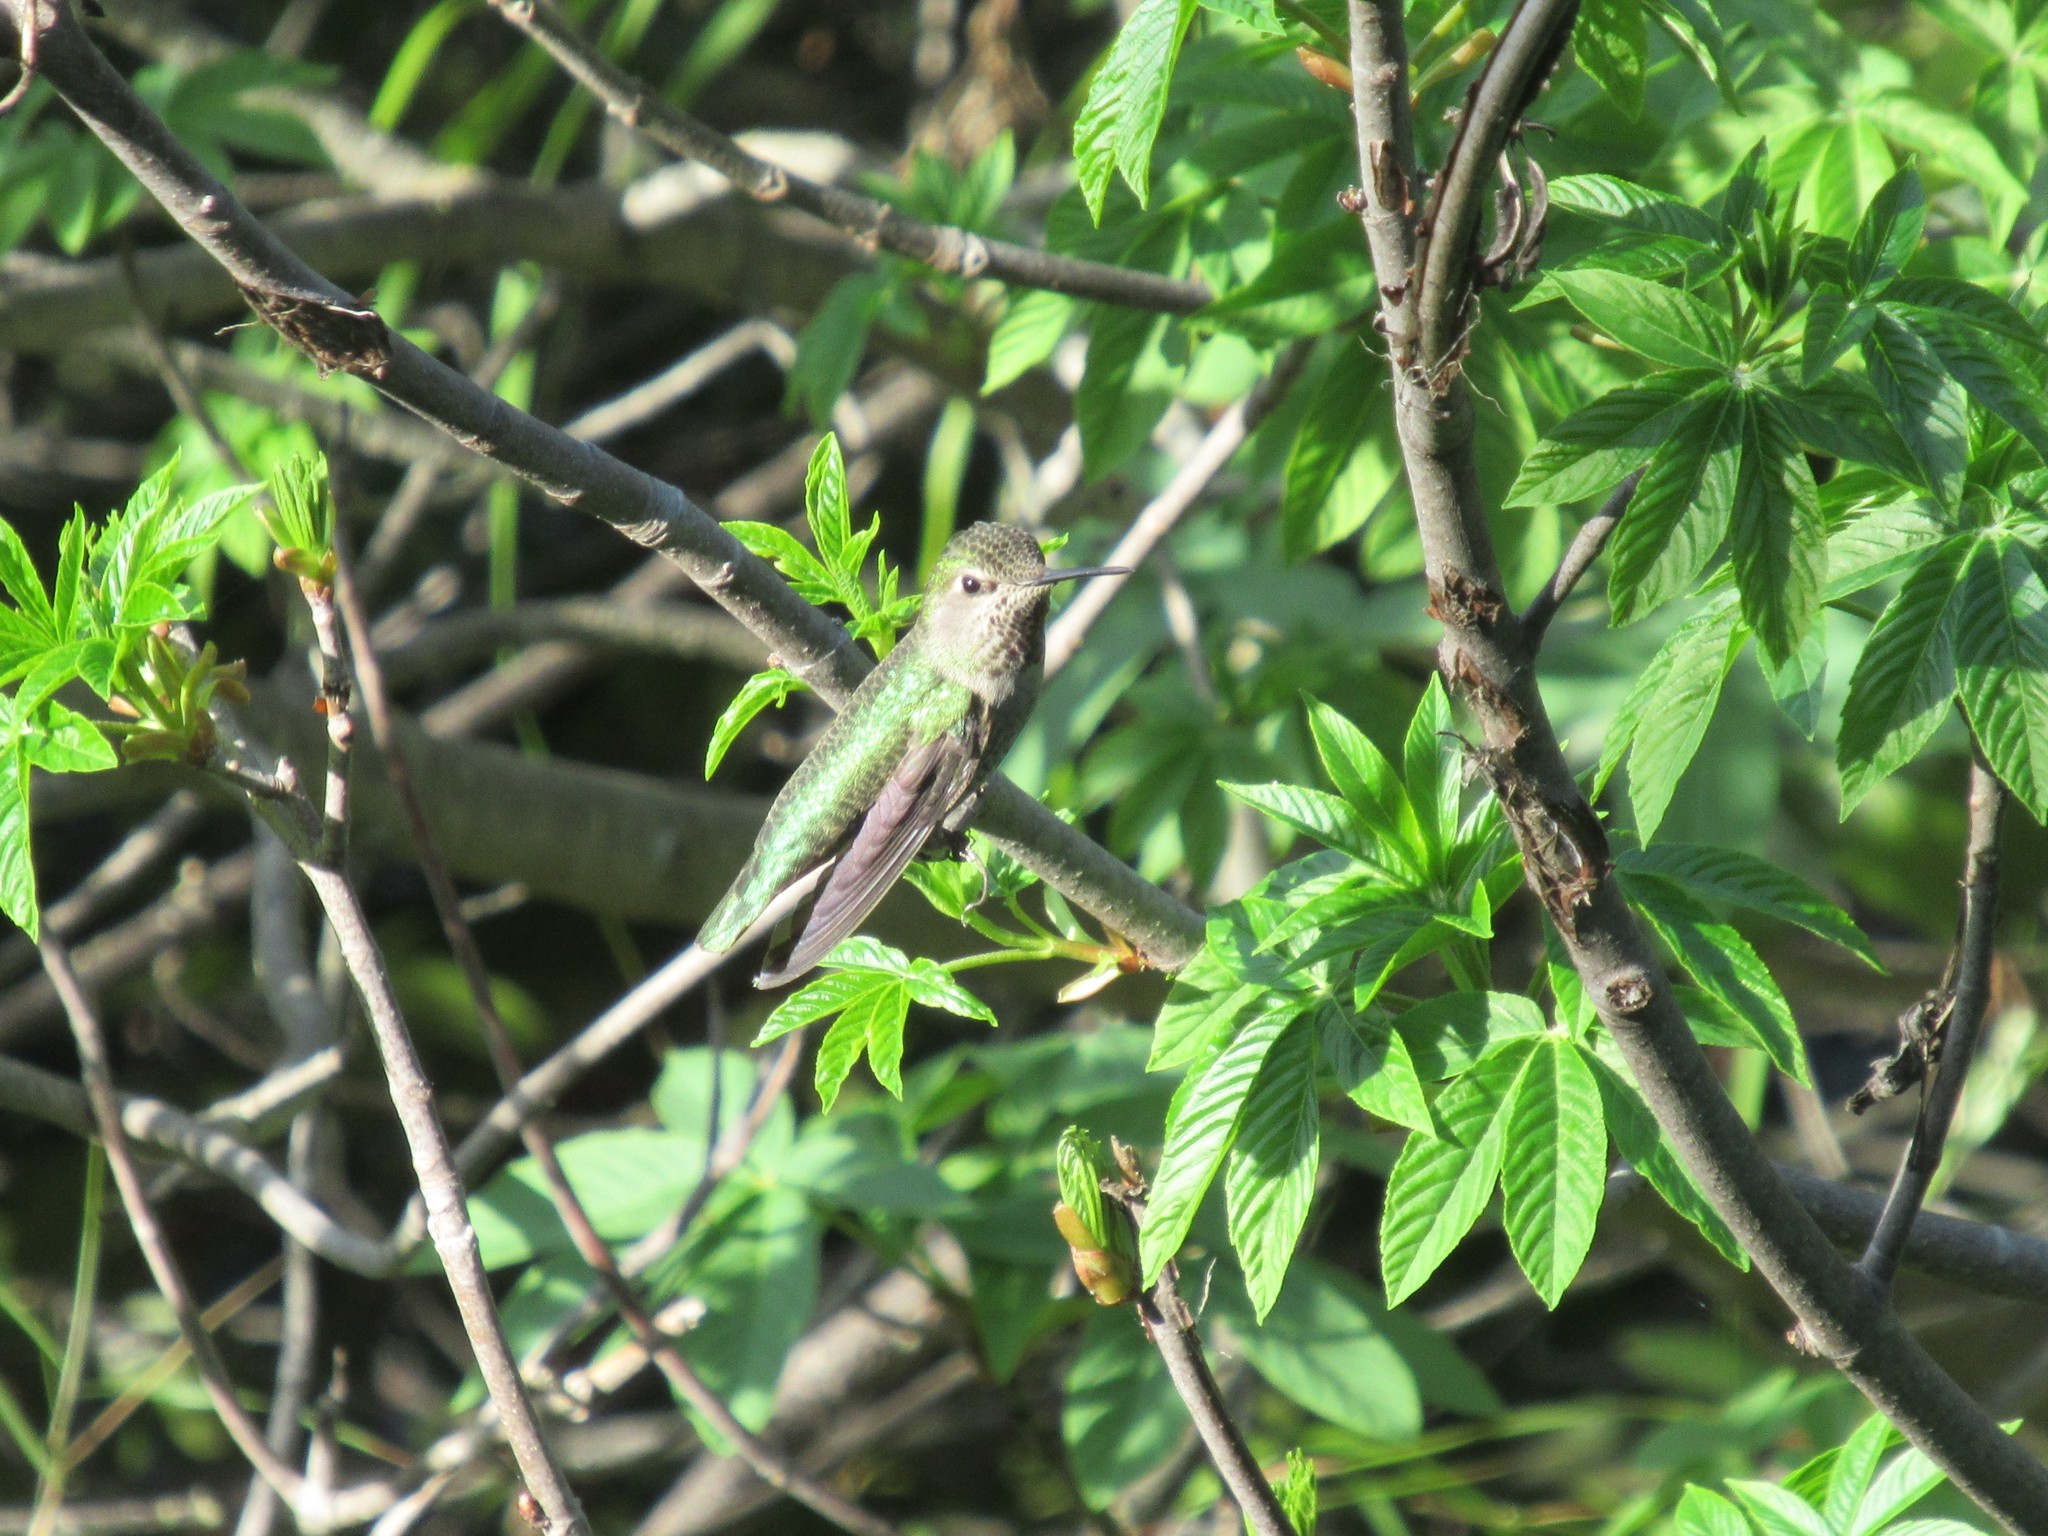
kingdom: Animalia
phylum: Chordata
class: Aves
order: Apodiformes
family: Trochilidae
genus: Calypte
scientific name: Calypte anna
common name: Anna's hummingbird
